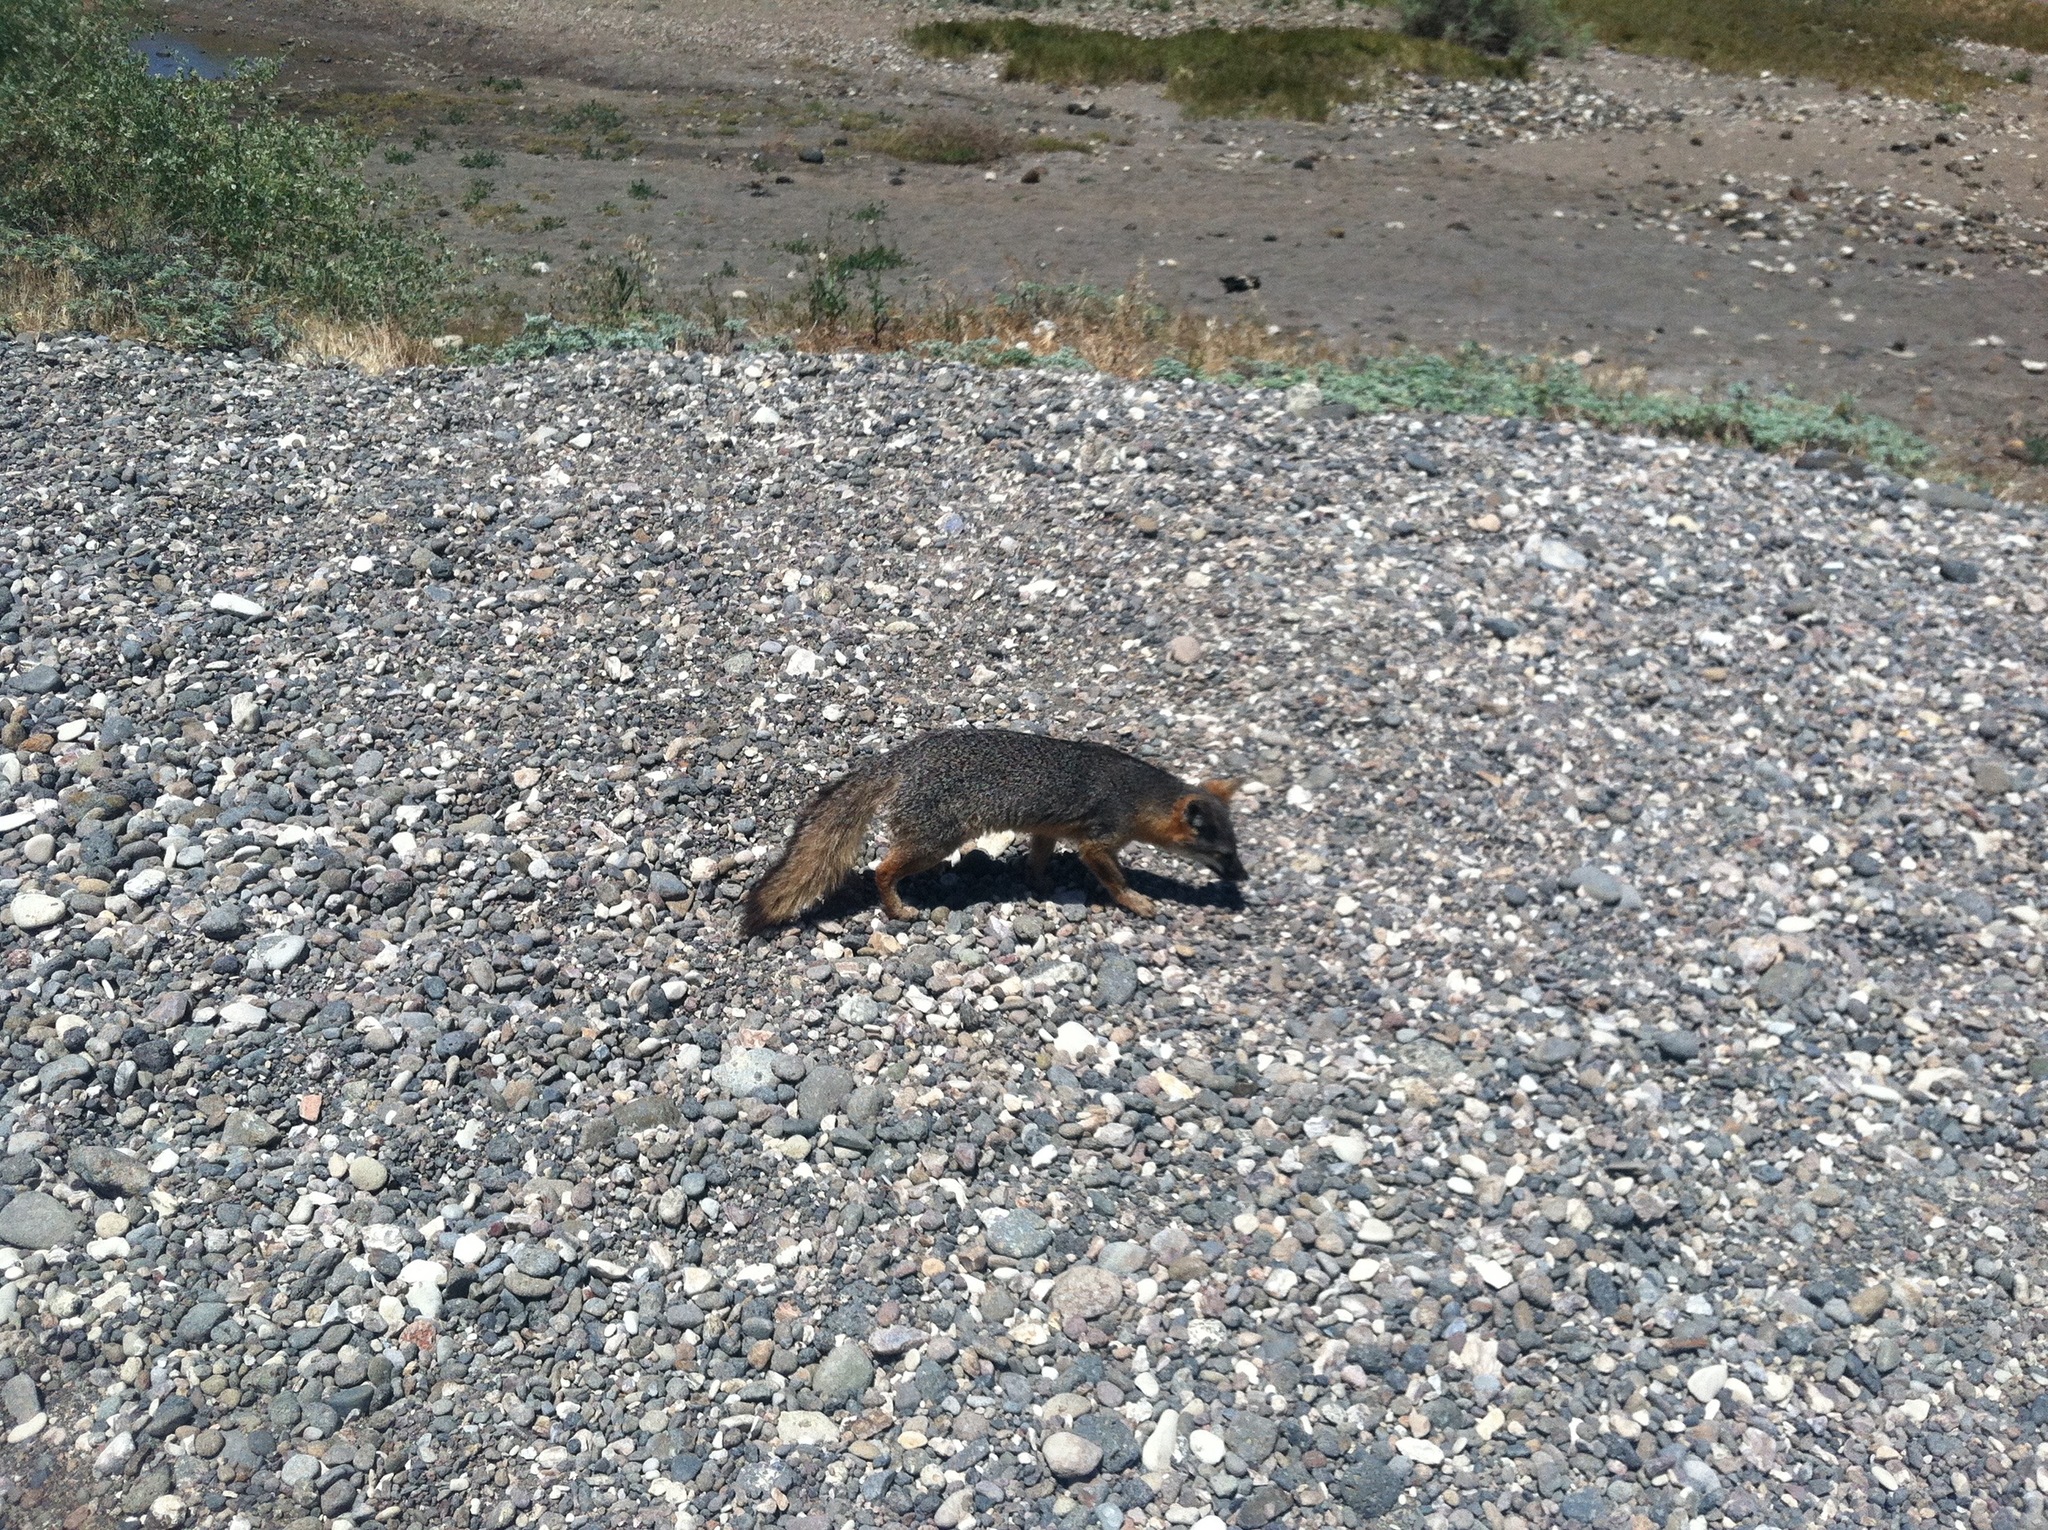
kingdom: Animalia
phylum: Chordata
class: Mammalia
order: Carnivora
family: Canidae
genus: Urocyon
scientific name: Urocyon littoralis
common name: Island gray fox
